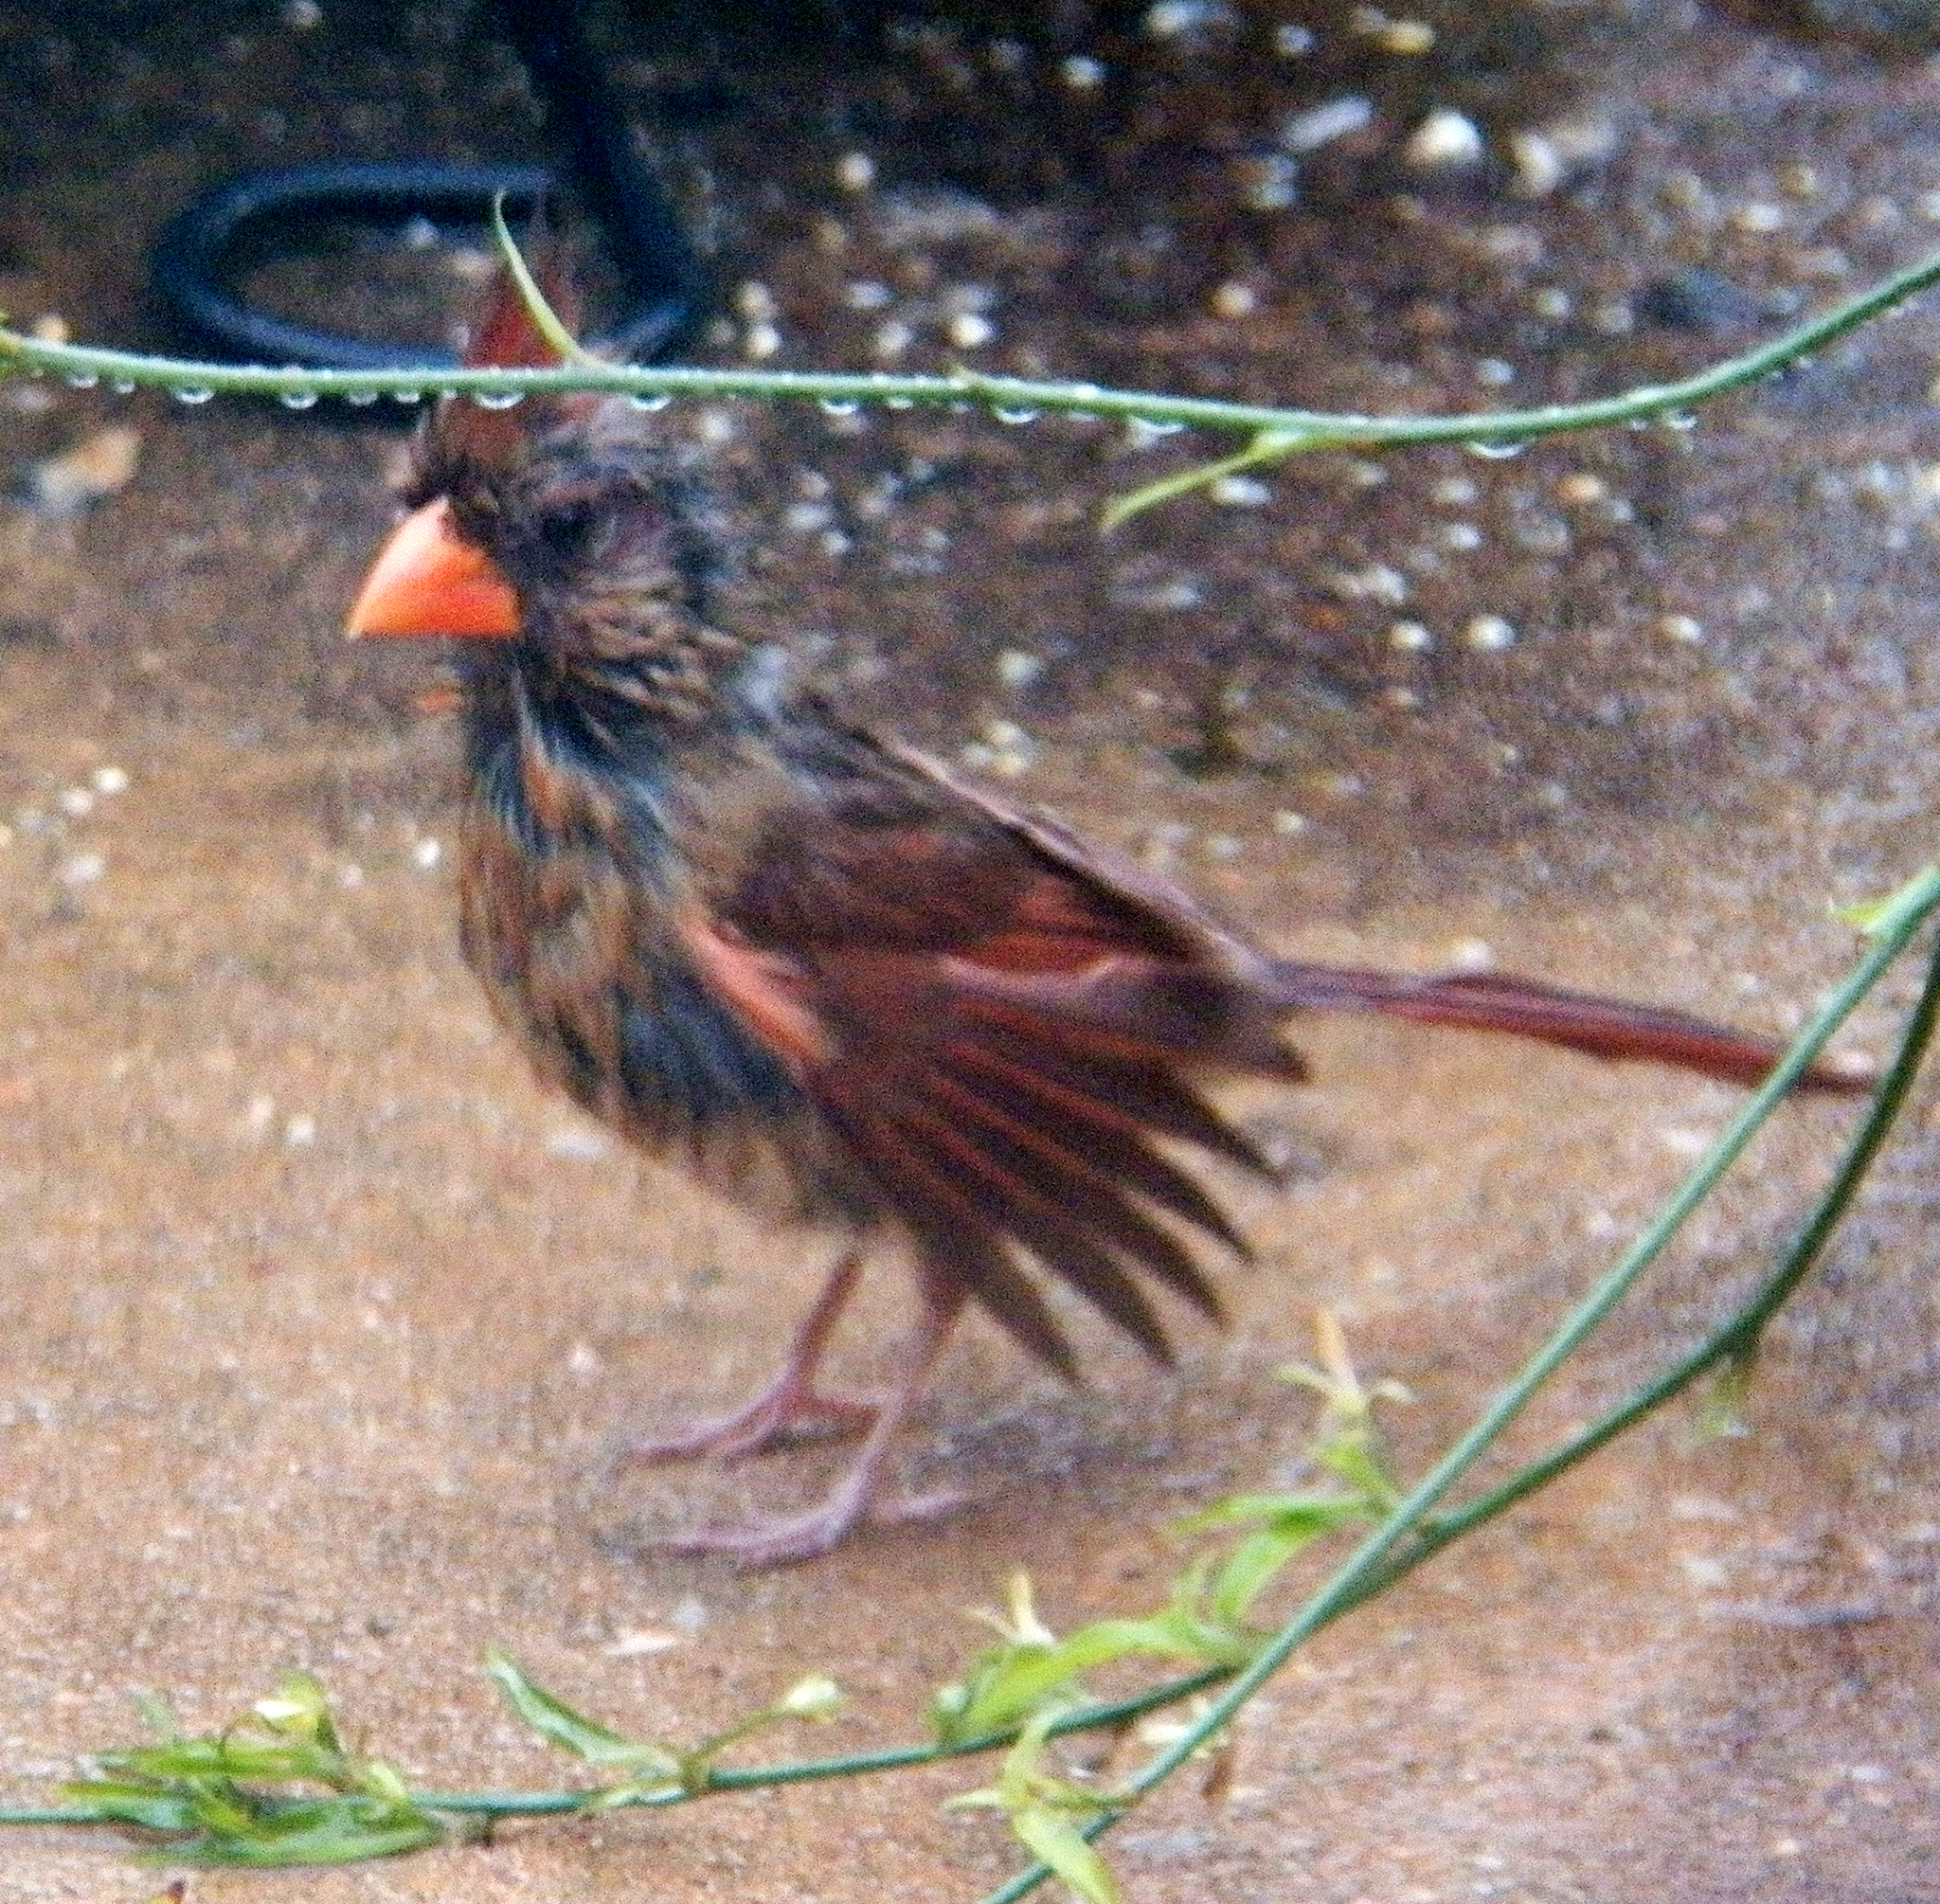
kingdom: Animalia
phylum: Chordata
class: Aves
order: Passeriformes
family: Cardinalidae
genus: Cardinalis
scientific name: Cardinalis cardinalis
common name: Northern cardinal
